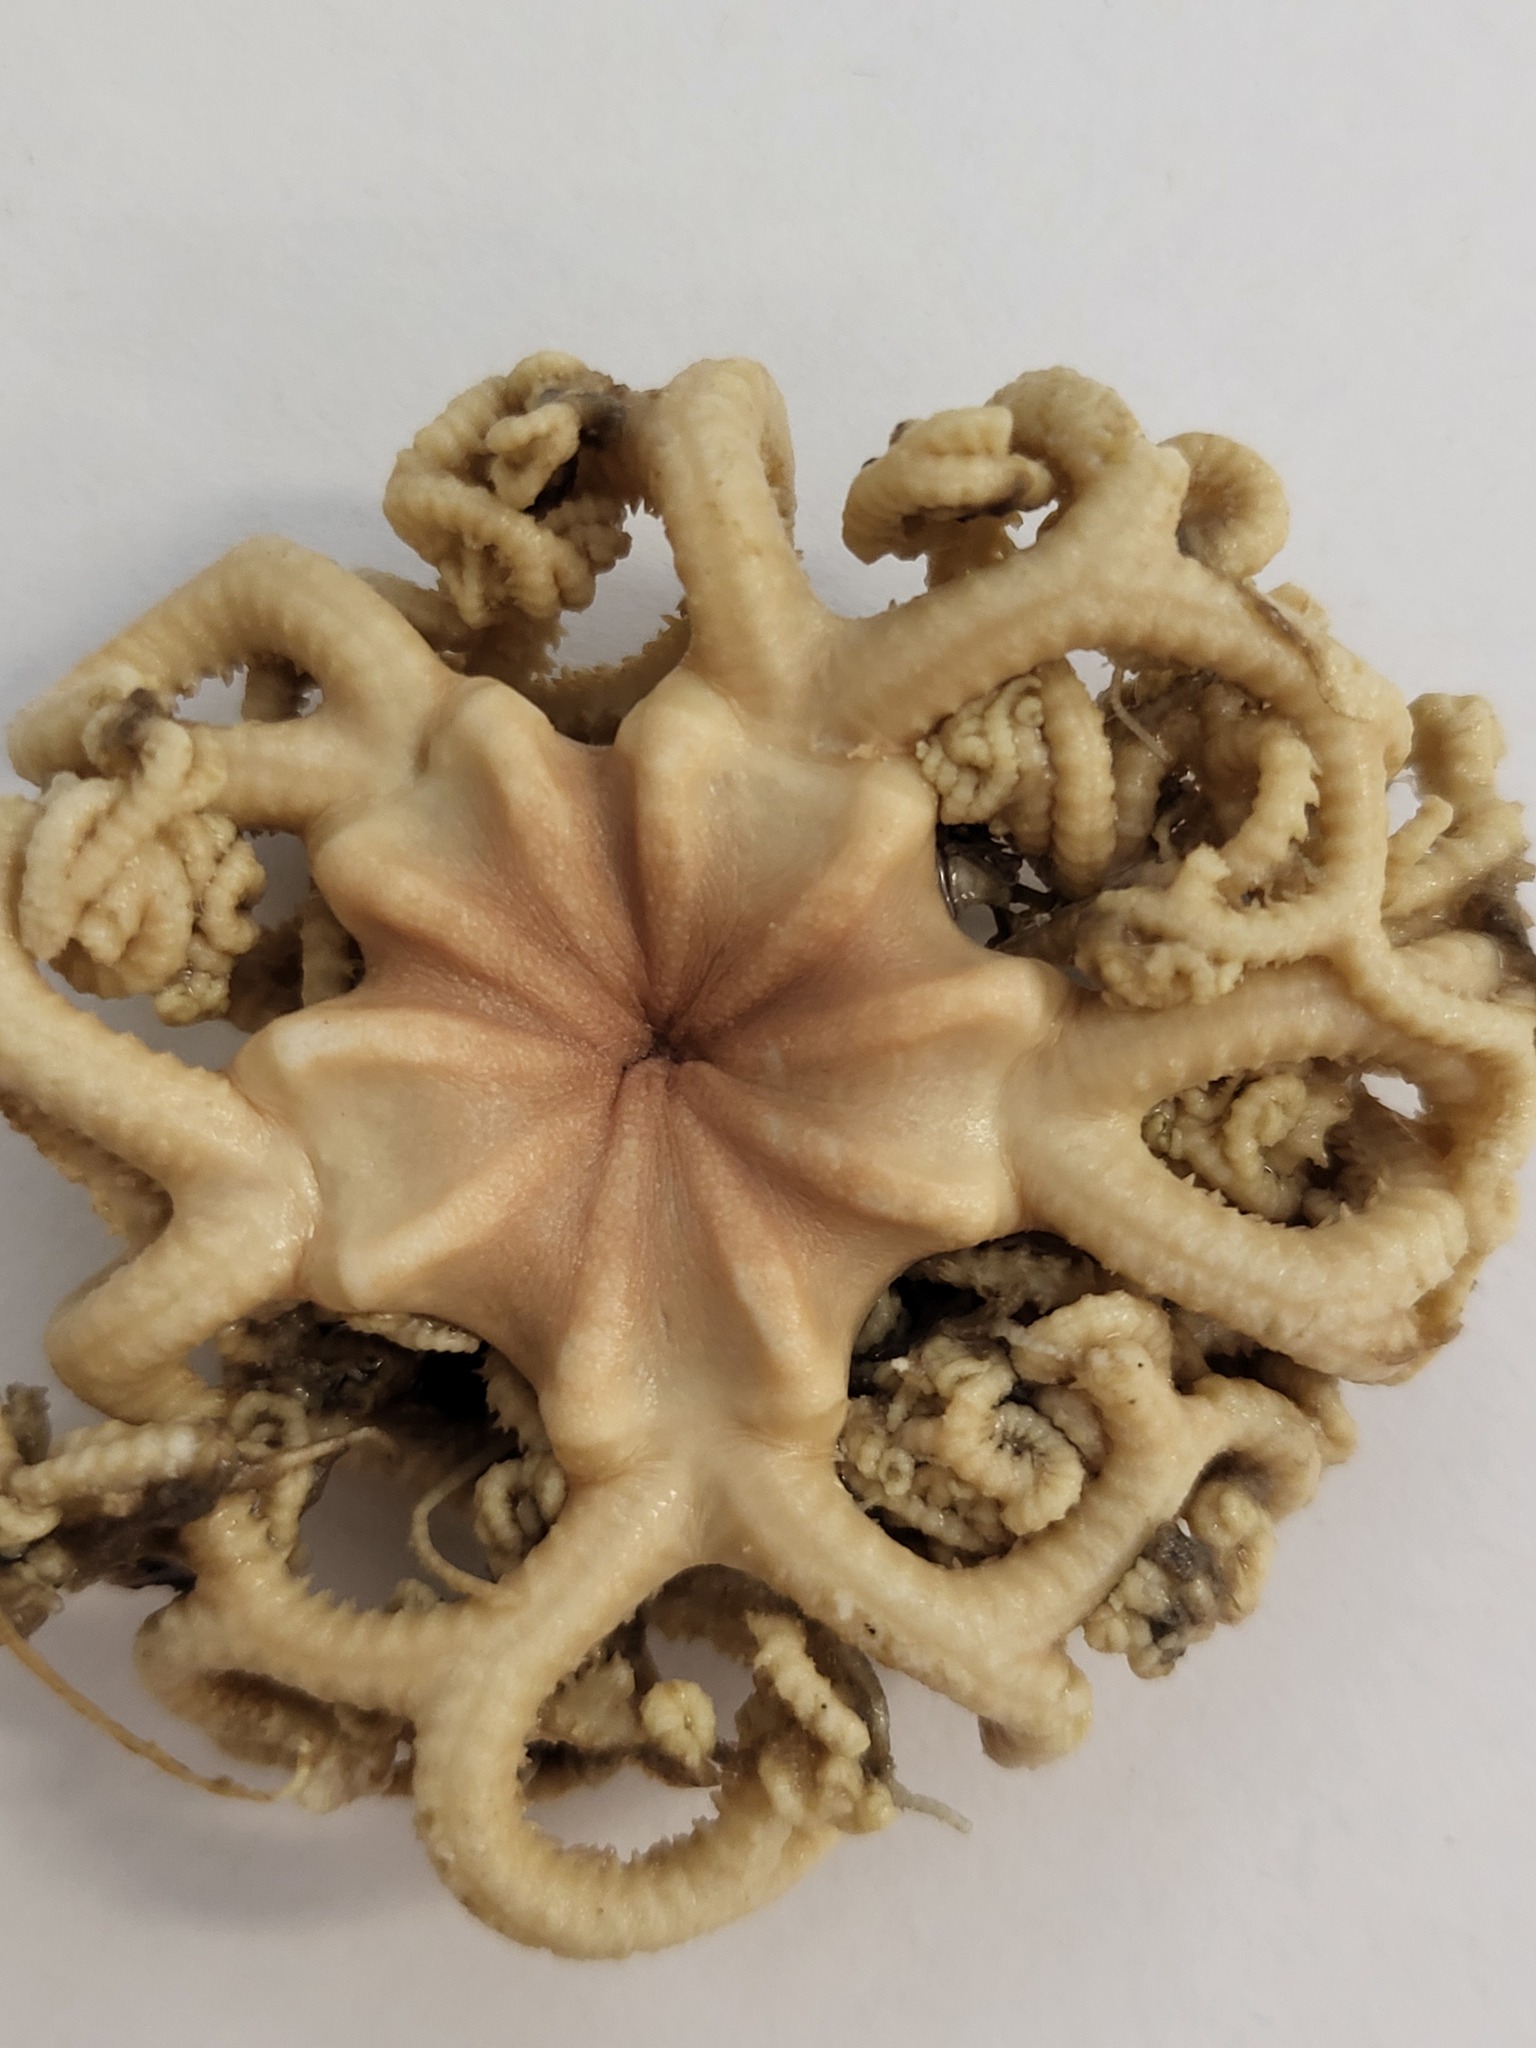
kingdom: Animalia
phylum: Echinodermata
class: Ophiuroidea
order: Euryalida
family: Gorgonocephalidae
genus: Gorgonocephalus
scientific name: Gorgonocephalus arcticus
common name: Northern basket star
